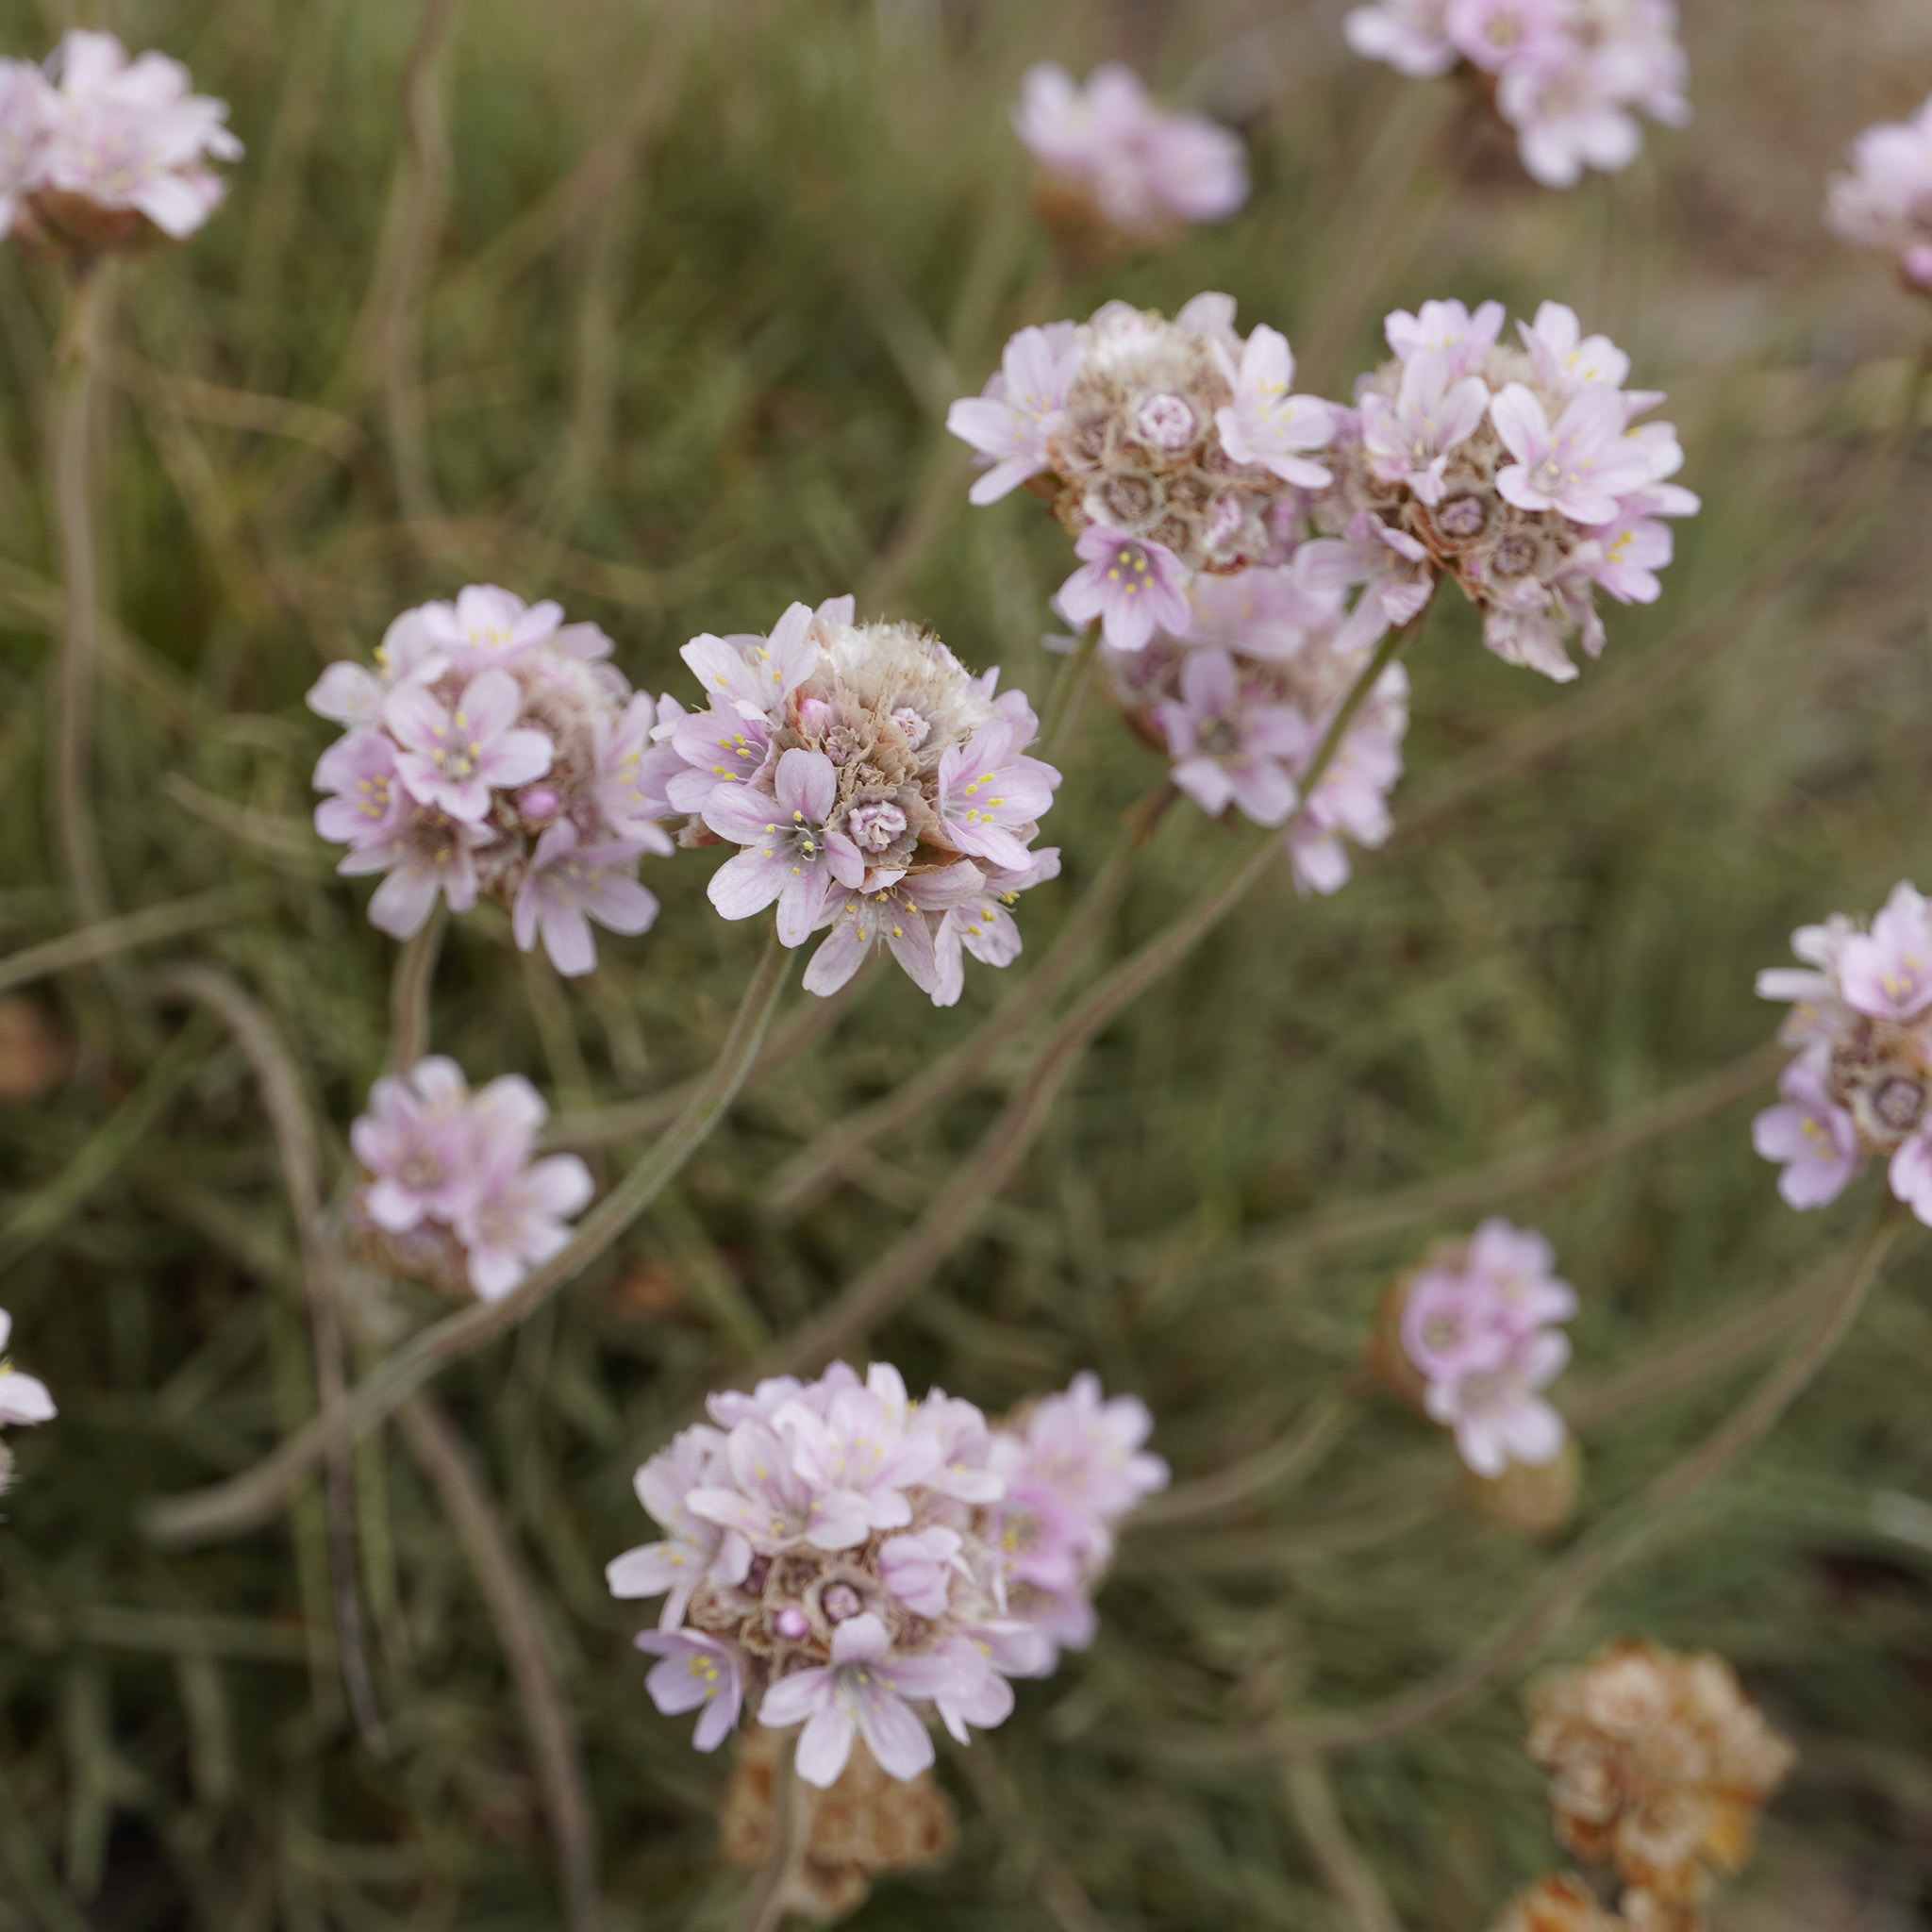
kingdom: Plantae
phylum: Tracheophyta
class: Magnoliopsida
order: Caryophyllales
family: Plumbaginaceae
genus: Armeria
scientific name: Armeria maritima
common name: Thrift
